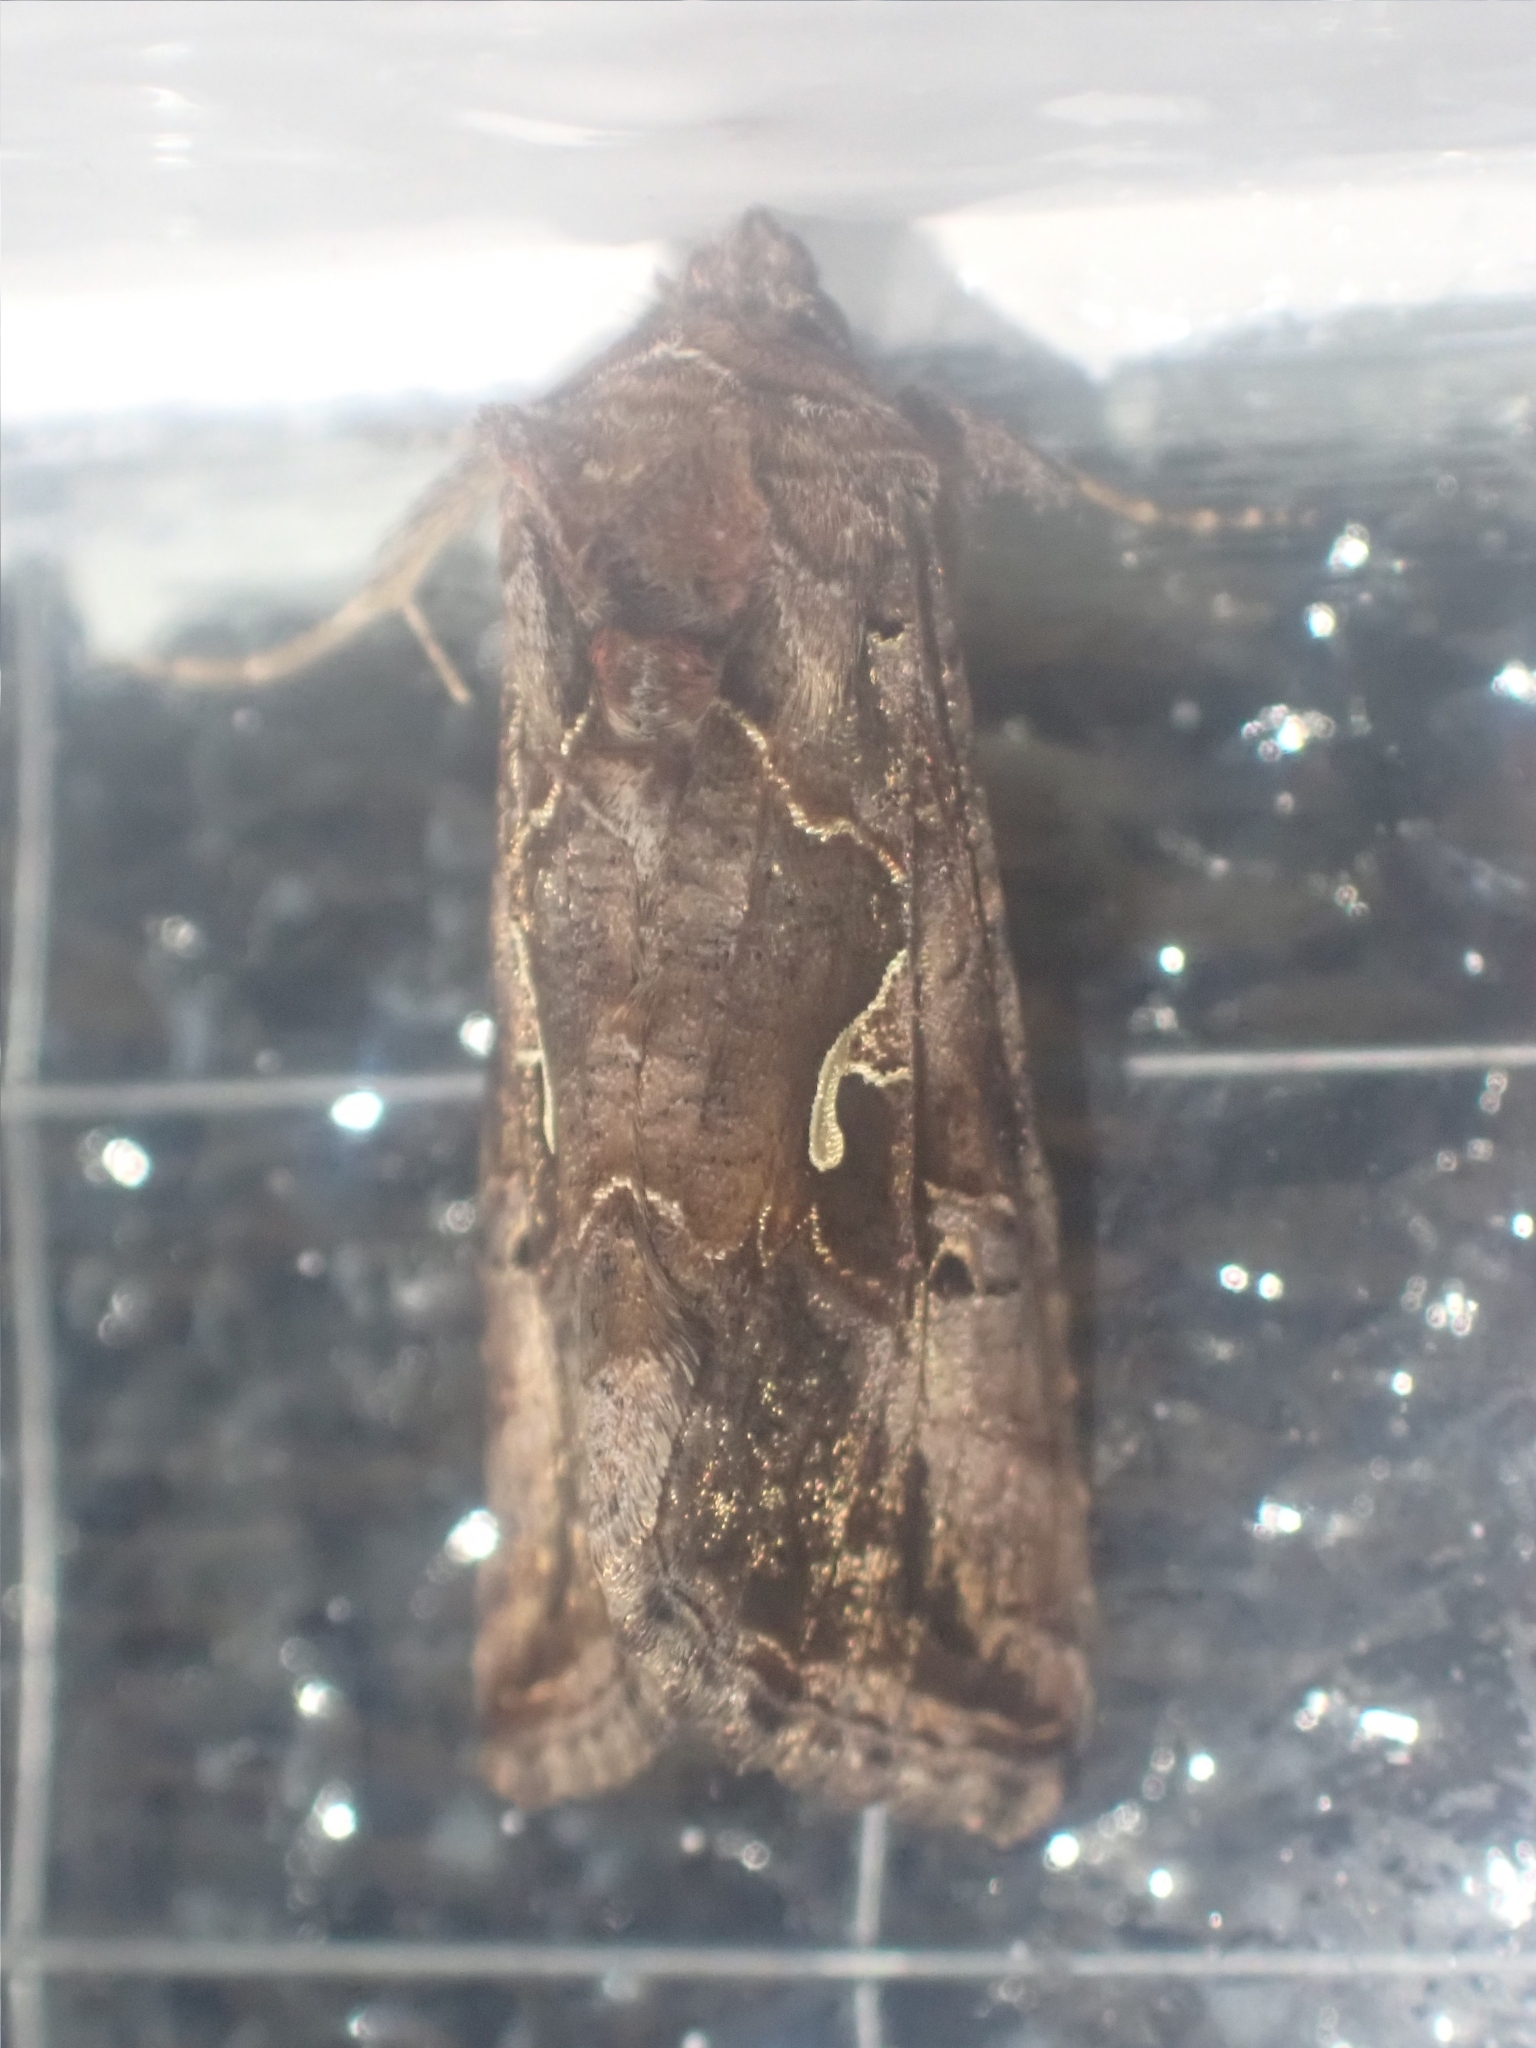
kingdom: Animalia
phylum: Arthropoda
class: Insecta
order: Lepidoptera
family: Noctuidae
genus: Autographa
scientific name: Autographa gamma
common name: Silver y
